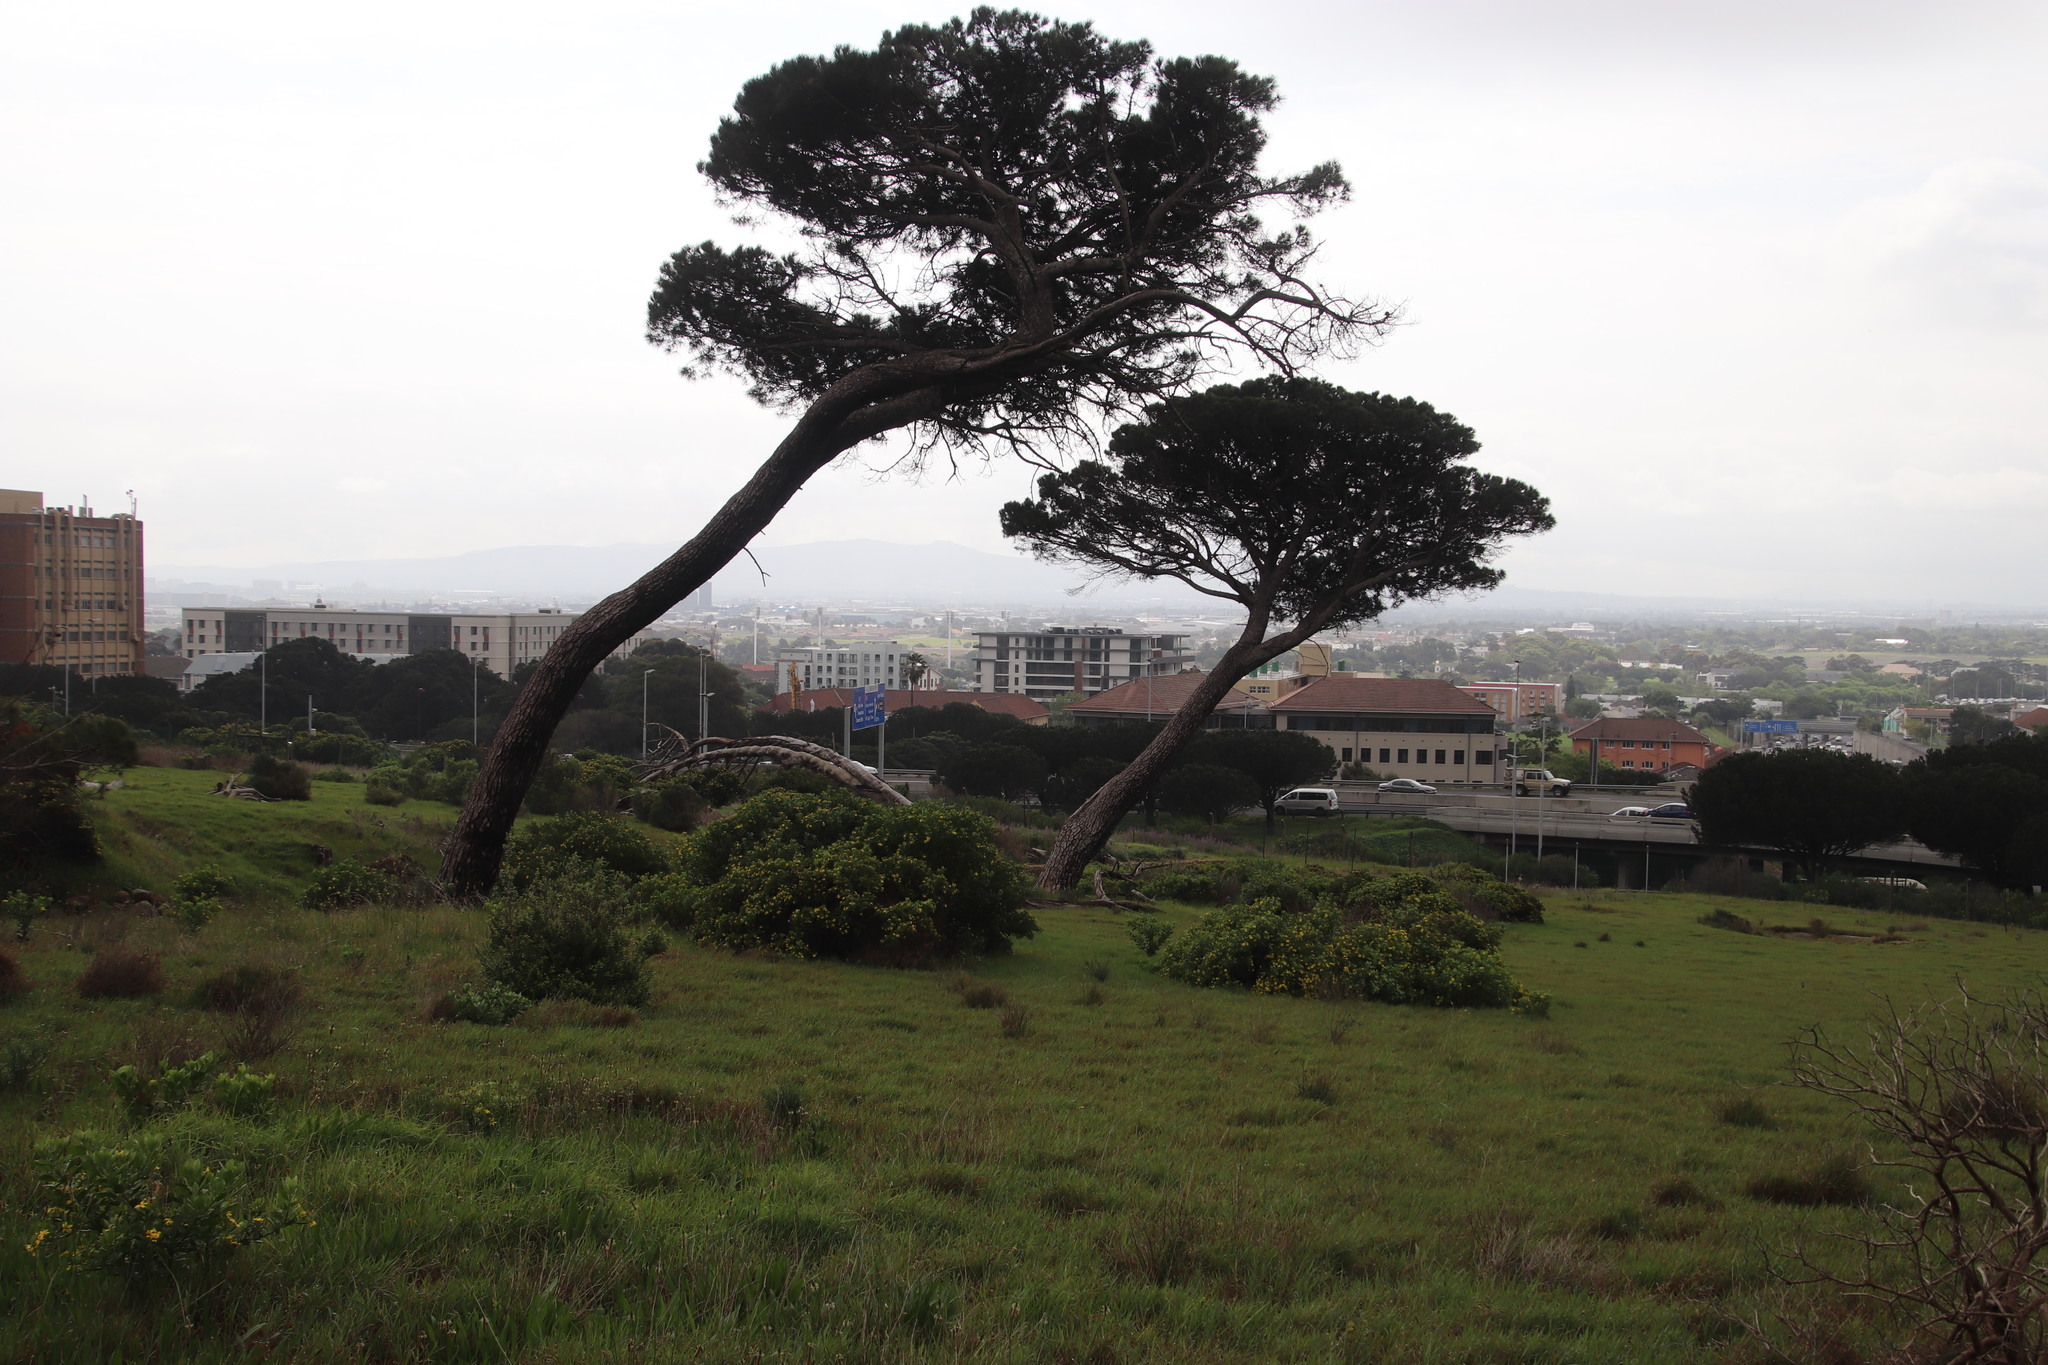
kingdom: Plantae
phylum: Tracheophyta
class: Pinopsida
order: Pinales
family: Pinaceae
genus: Pinus
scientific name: Pinus pinea
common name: Italian stone pine
